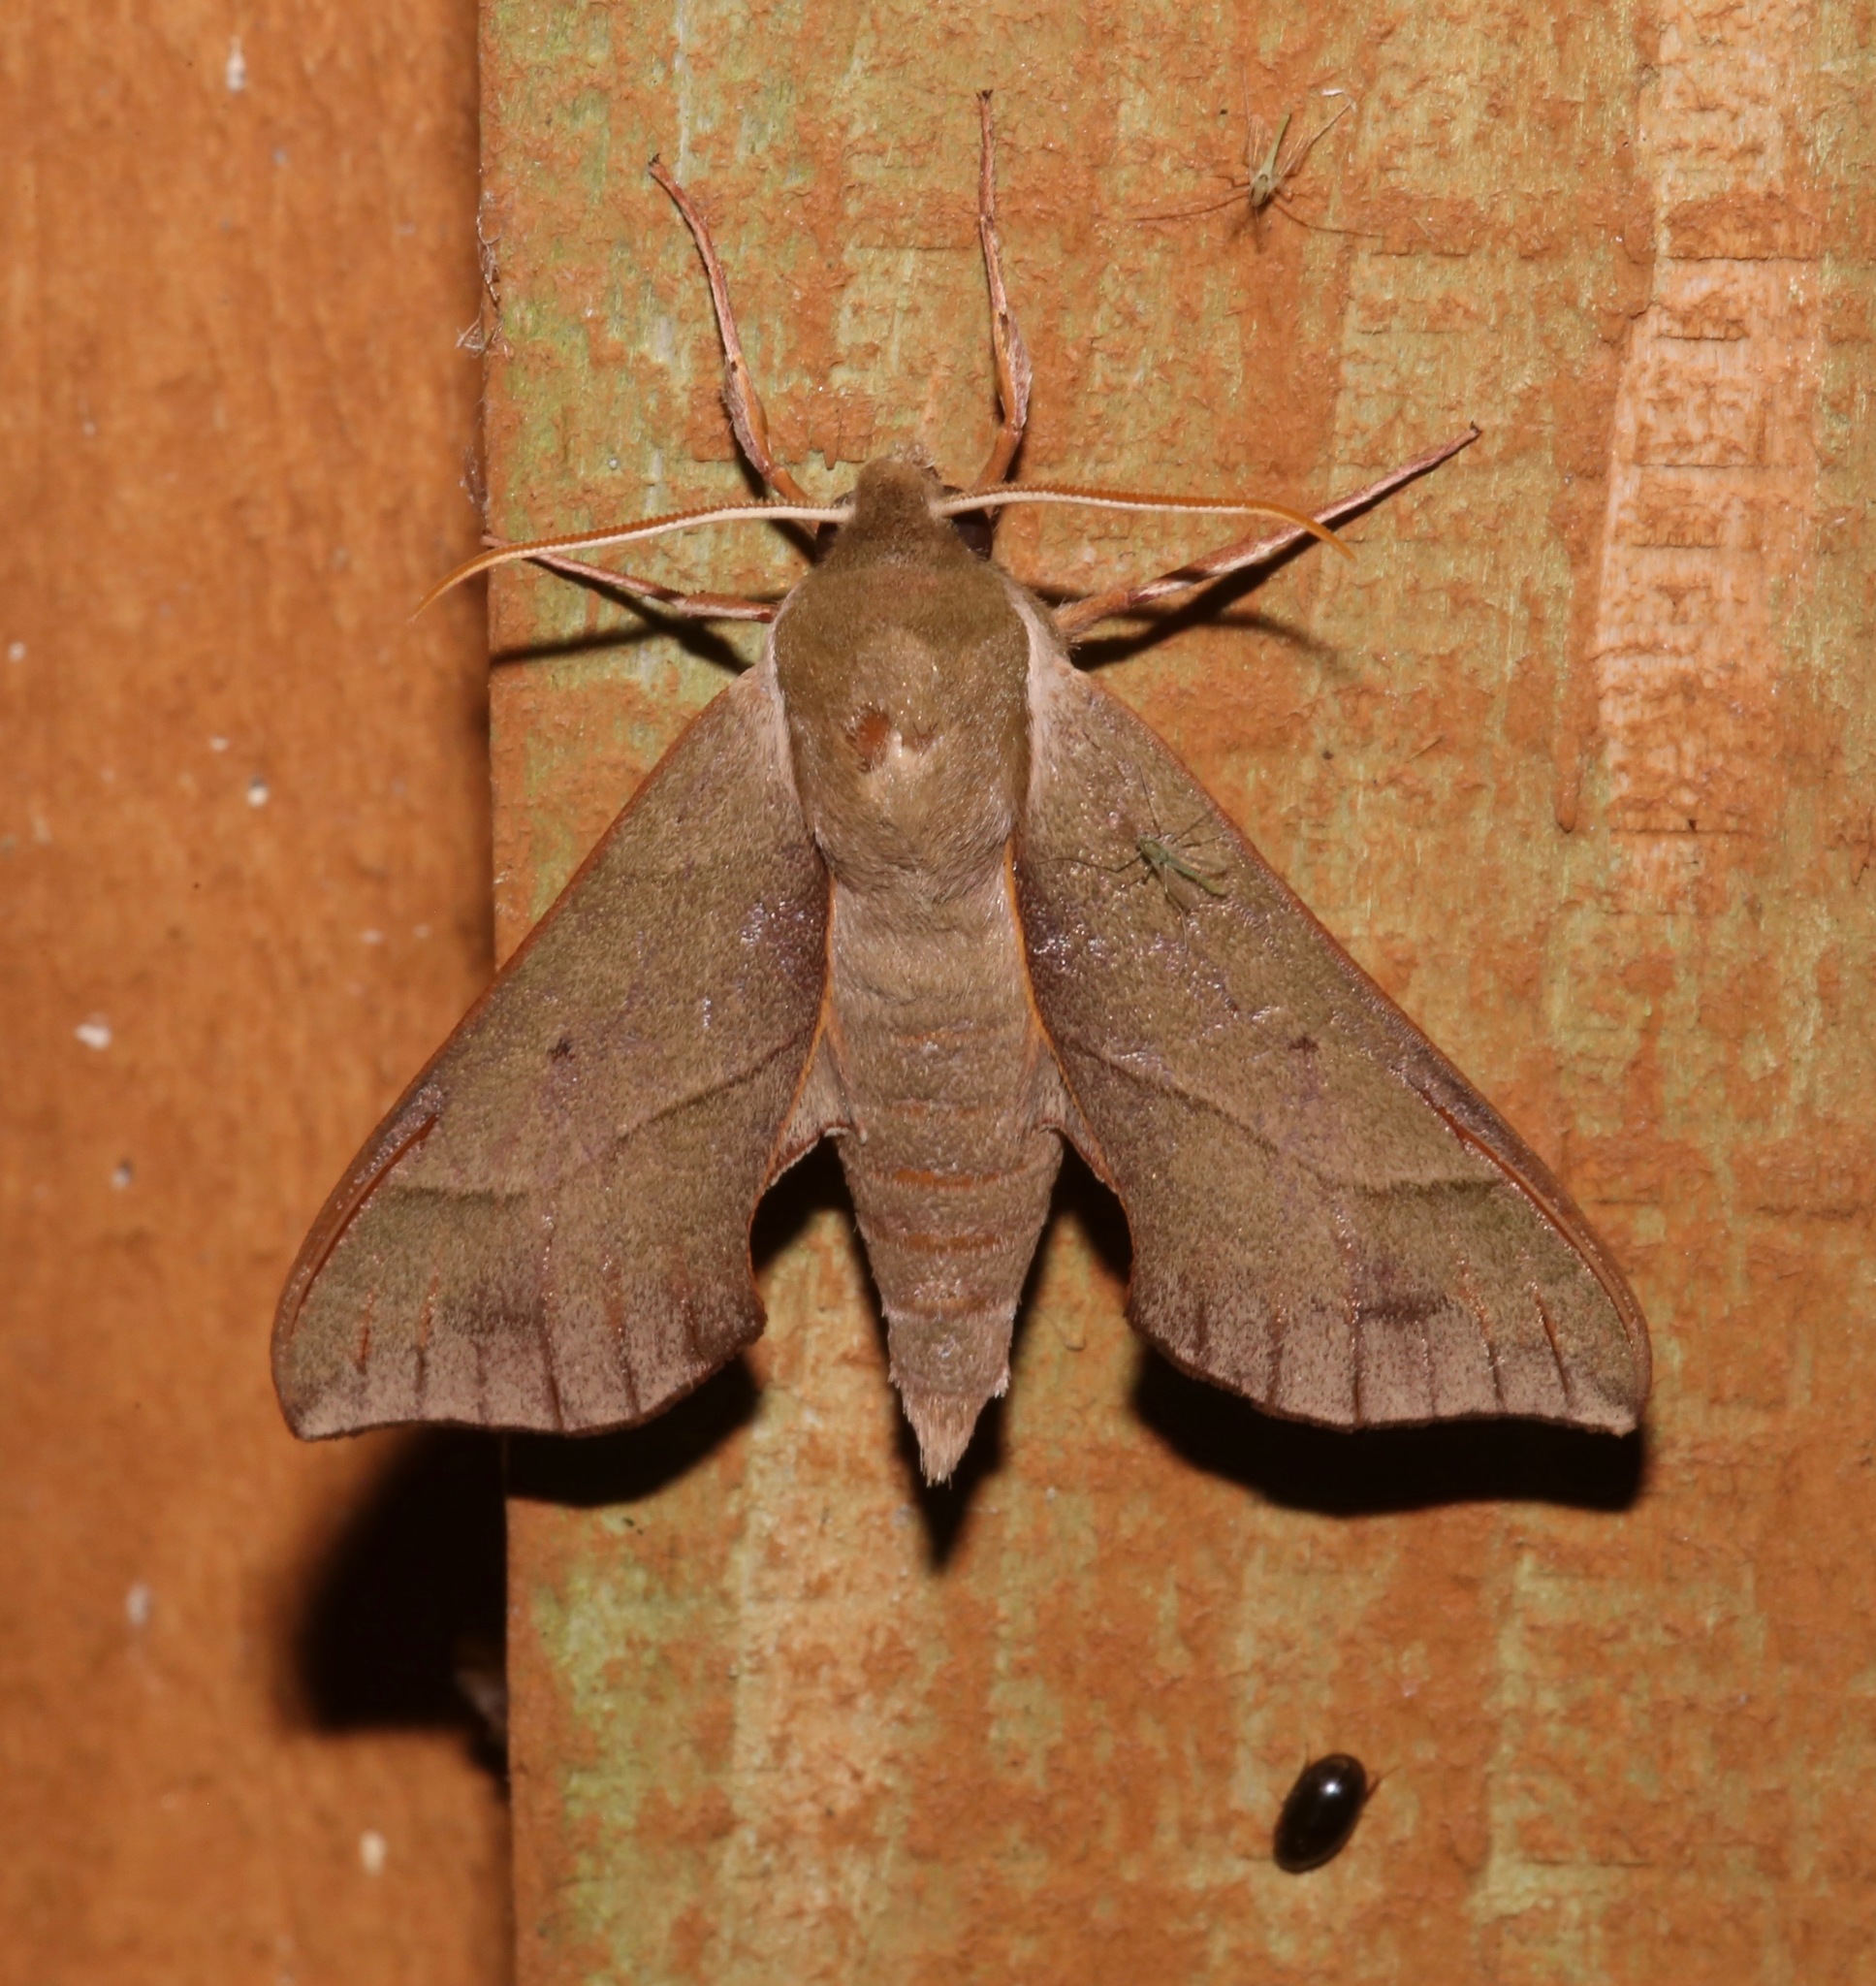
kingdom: Animalia
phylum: Arthropoda
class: Insecta
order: Lepidoptera
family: Sphingidae
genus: Darapsa
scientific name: Darapsa myron
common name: Hog sphinx
